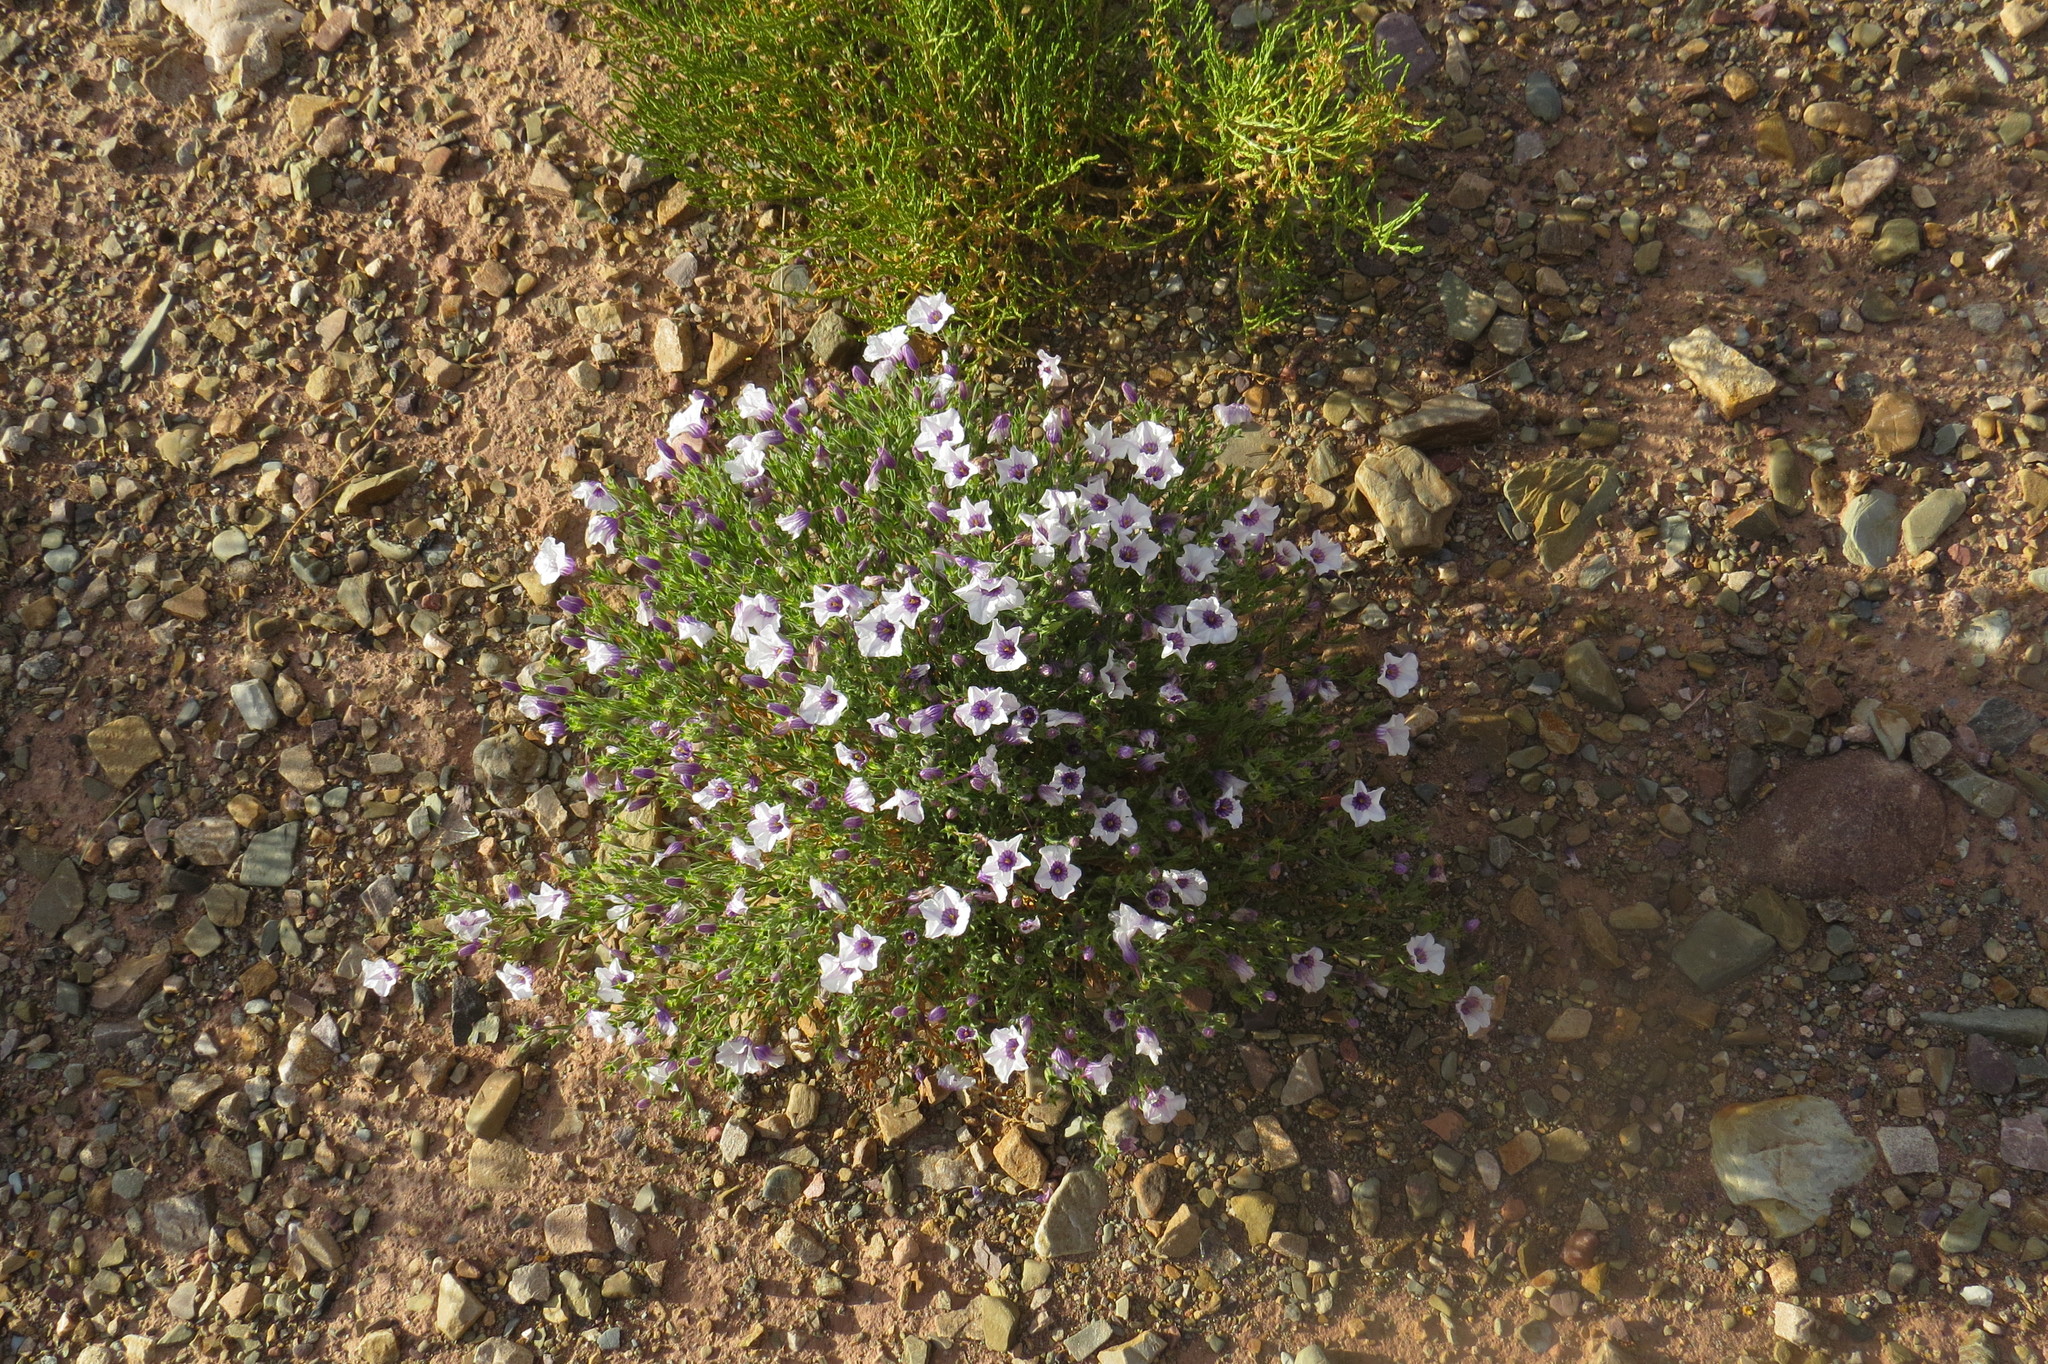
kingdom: Plantae
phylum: Tracheophyta
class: Magnoliopsida
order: Solanales
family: Solanaceae
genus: Nierembergia
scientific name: Nierembergia pulchella
